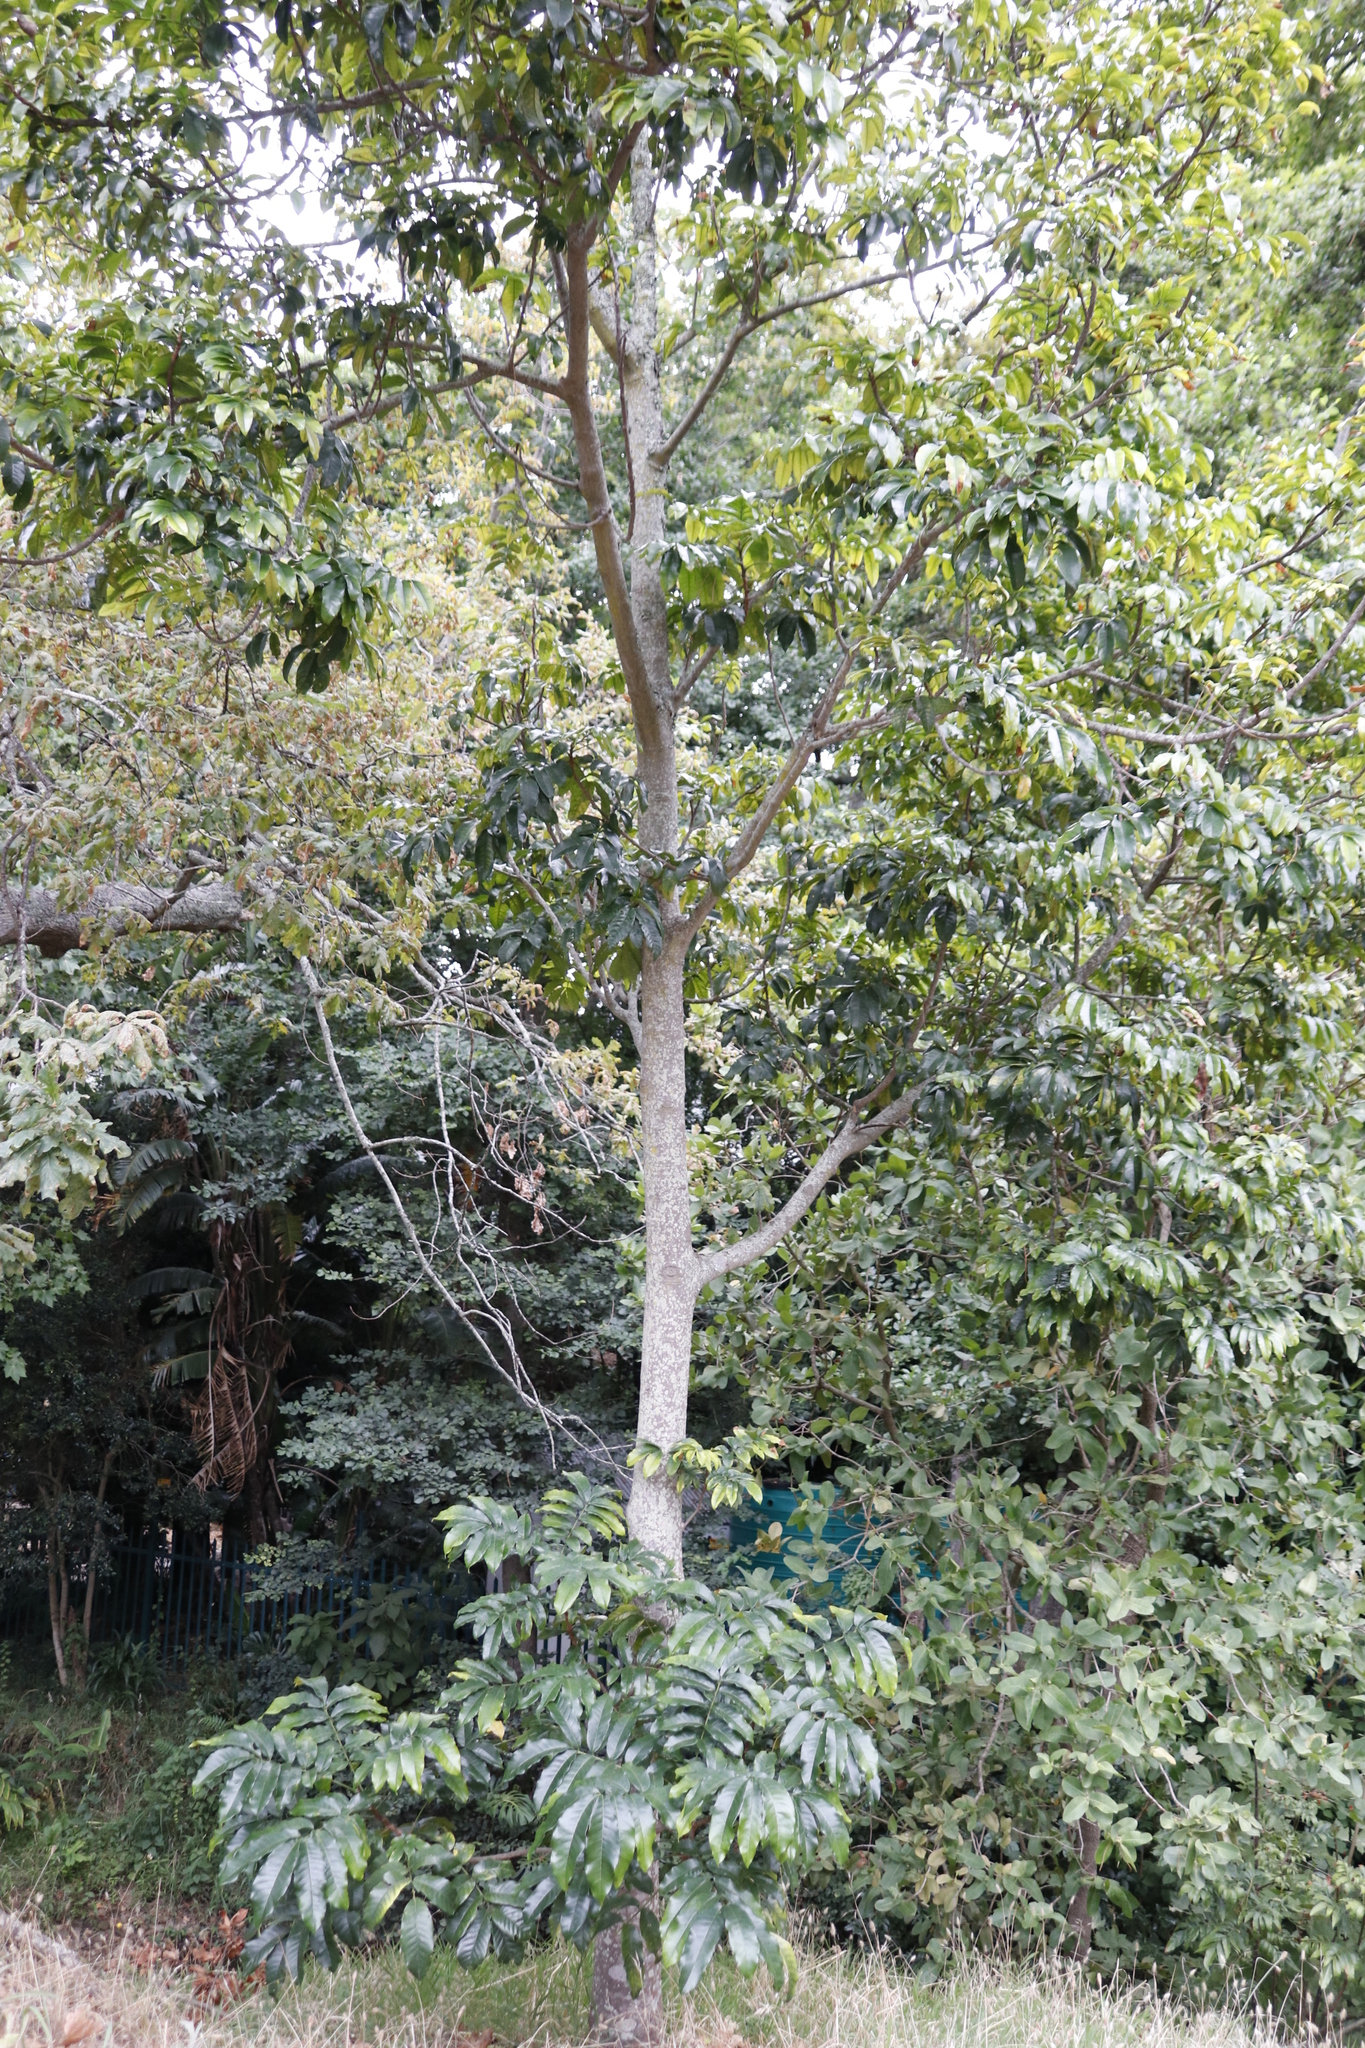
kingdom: Plantae
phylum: Tracheophyta
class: Magnoliopsida
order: Sapindales
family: Meliaceae
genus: Trichilia
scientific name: Trichilia dregeana
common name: Christmas-bells
